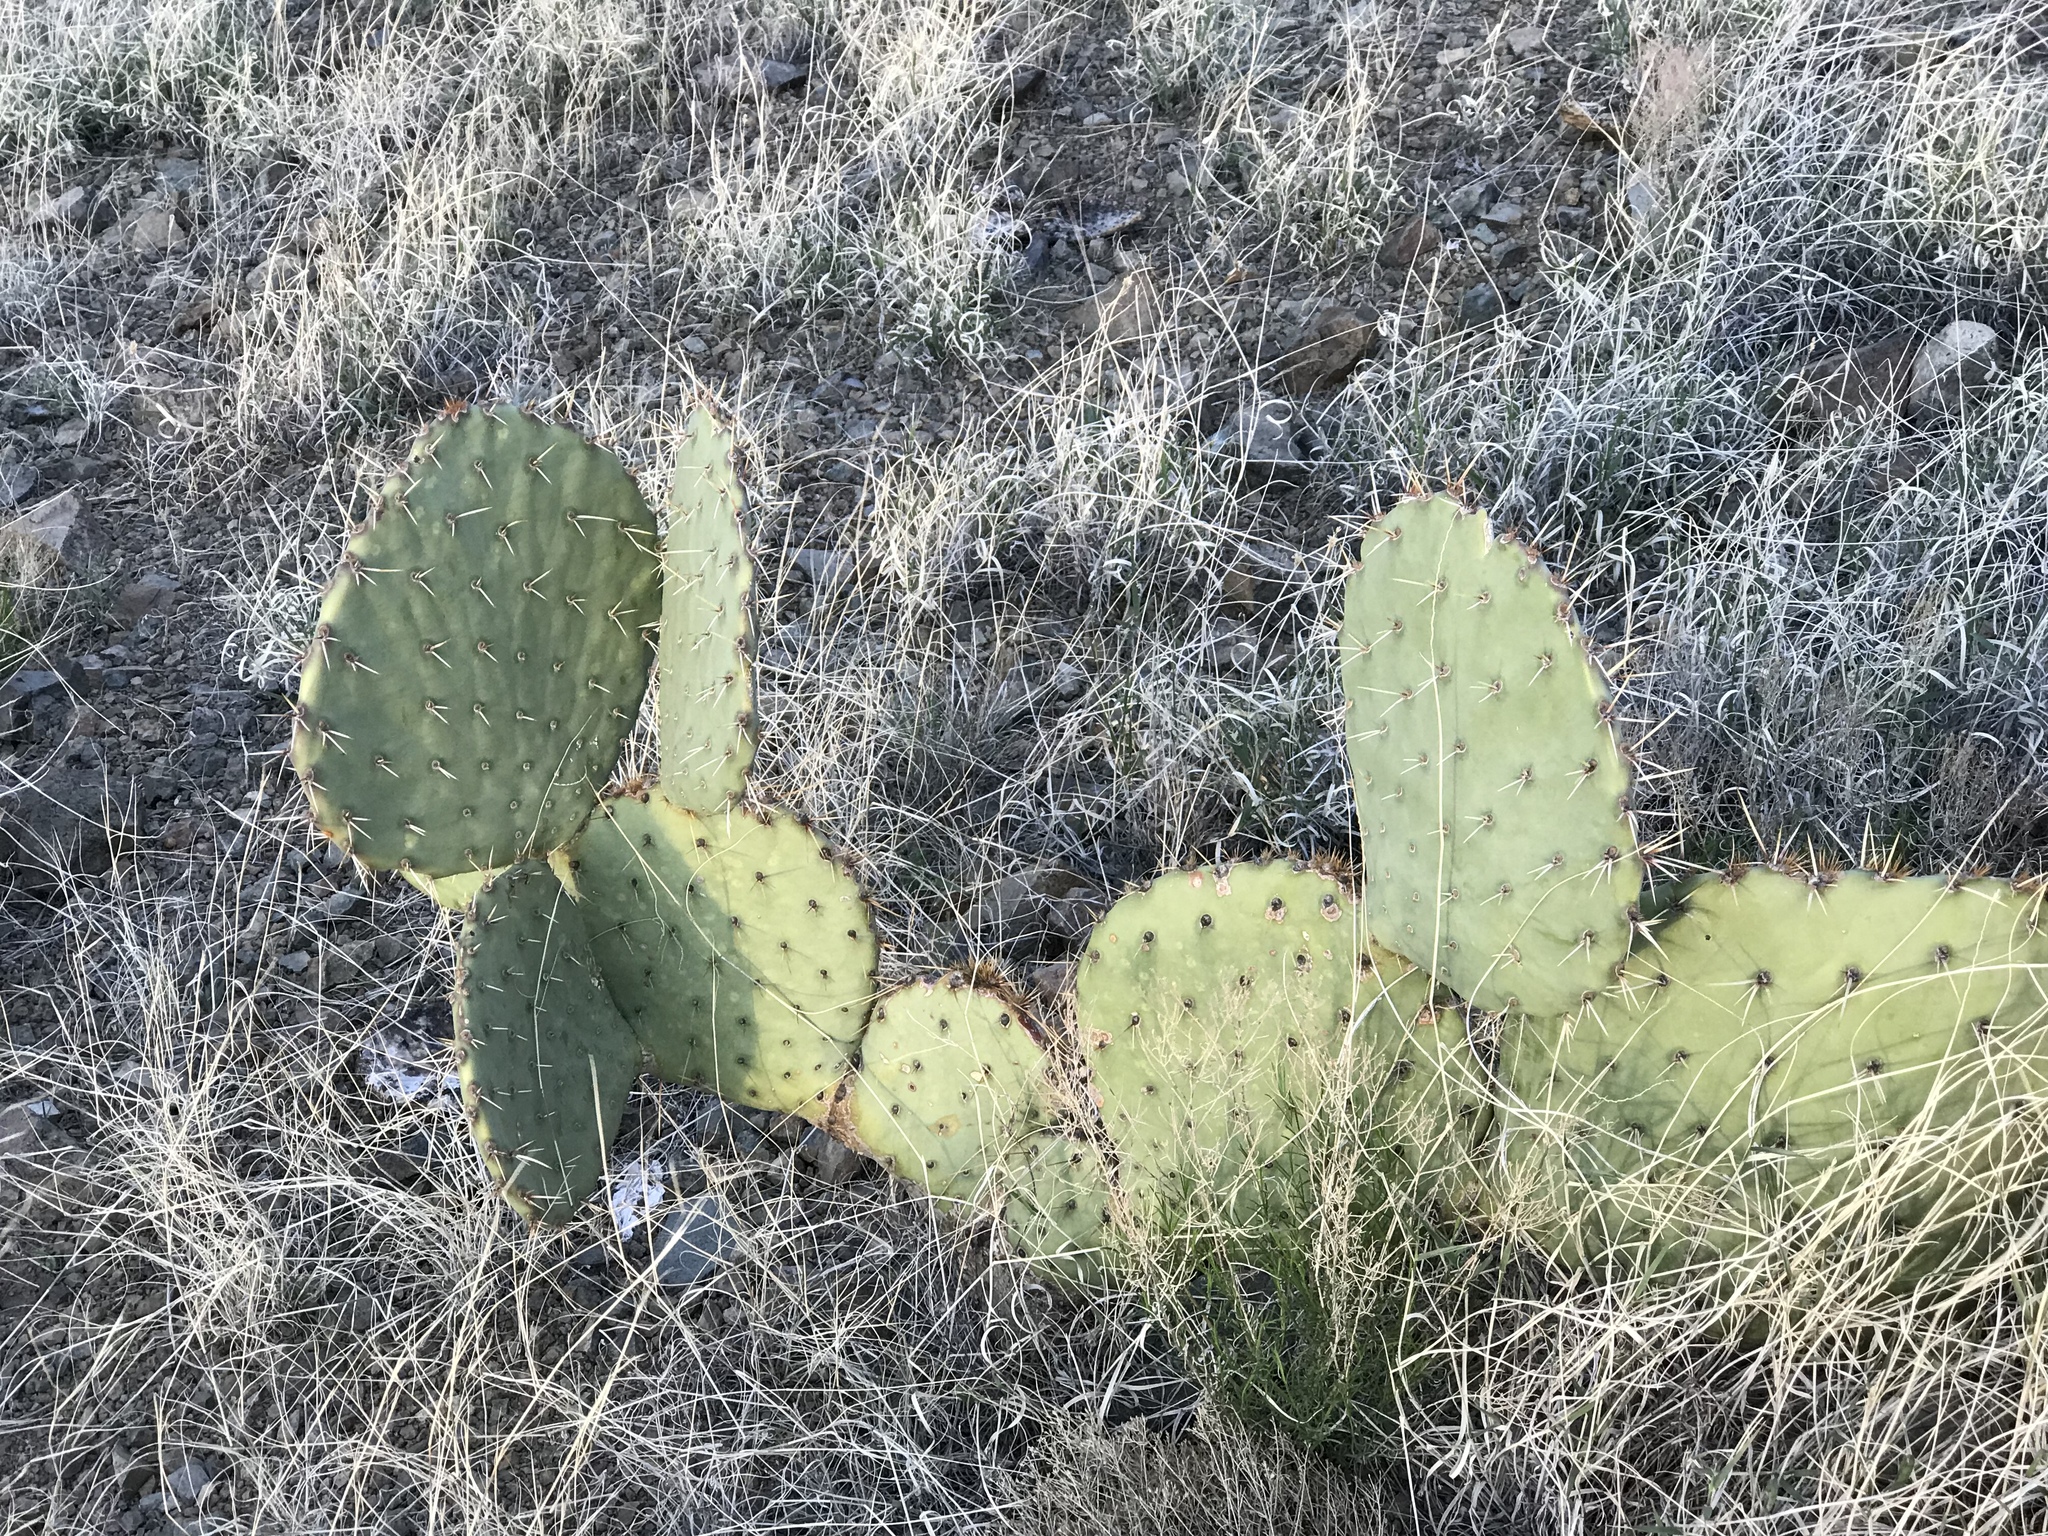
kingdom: Plantae
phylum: Tracheophyta
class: Magnoliopsida
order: Caryophyllales
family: Cactaceae
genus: Opuntia
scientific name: Opuntia orbiculata
